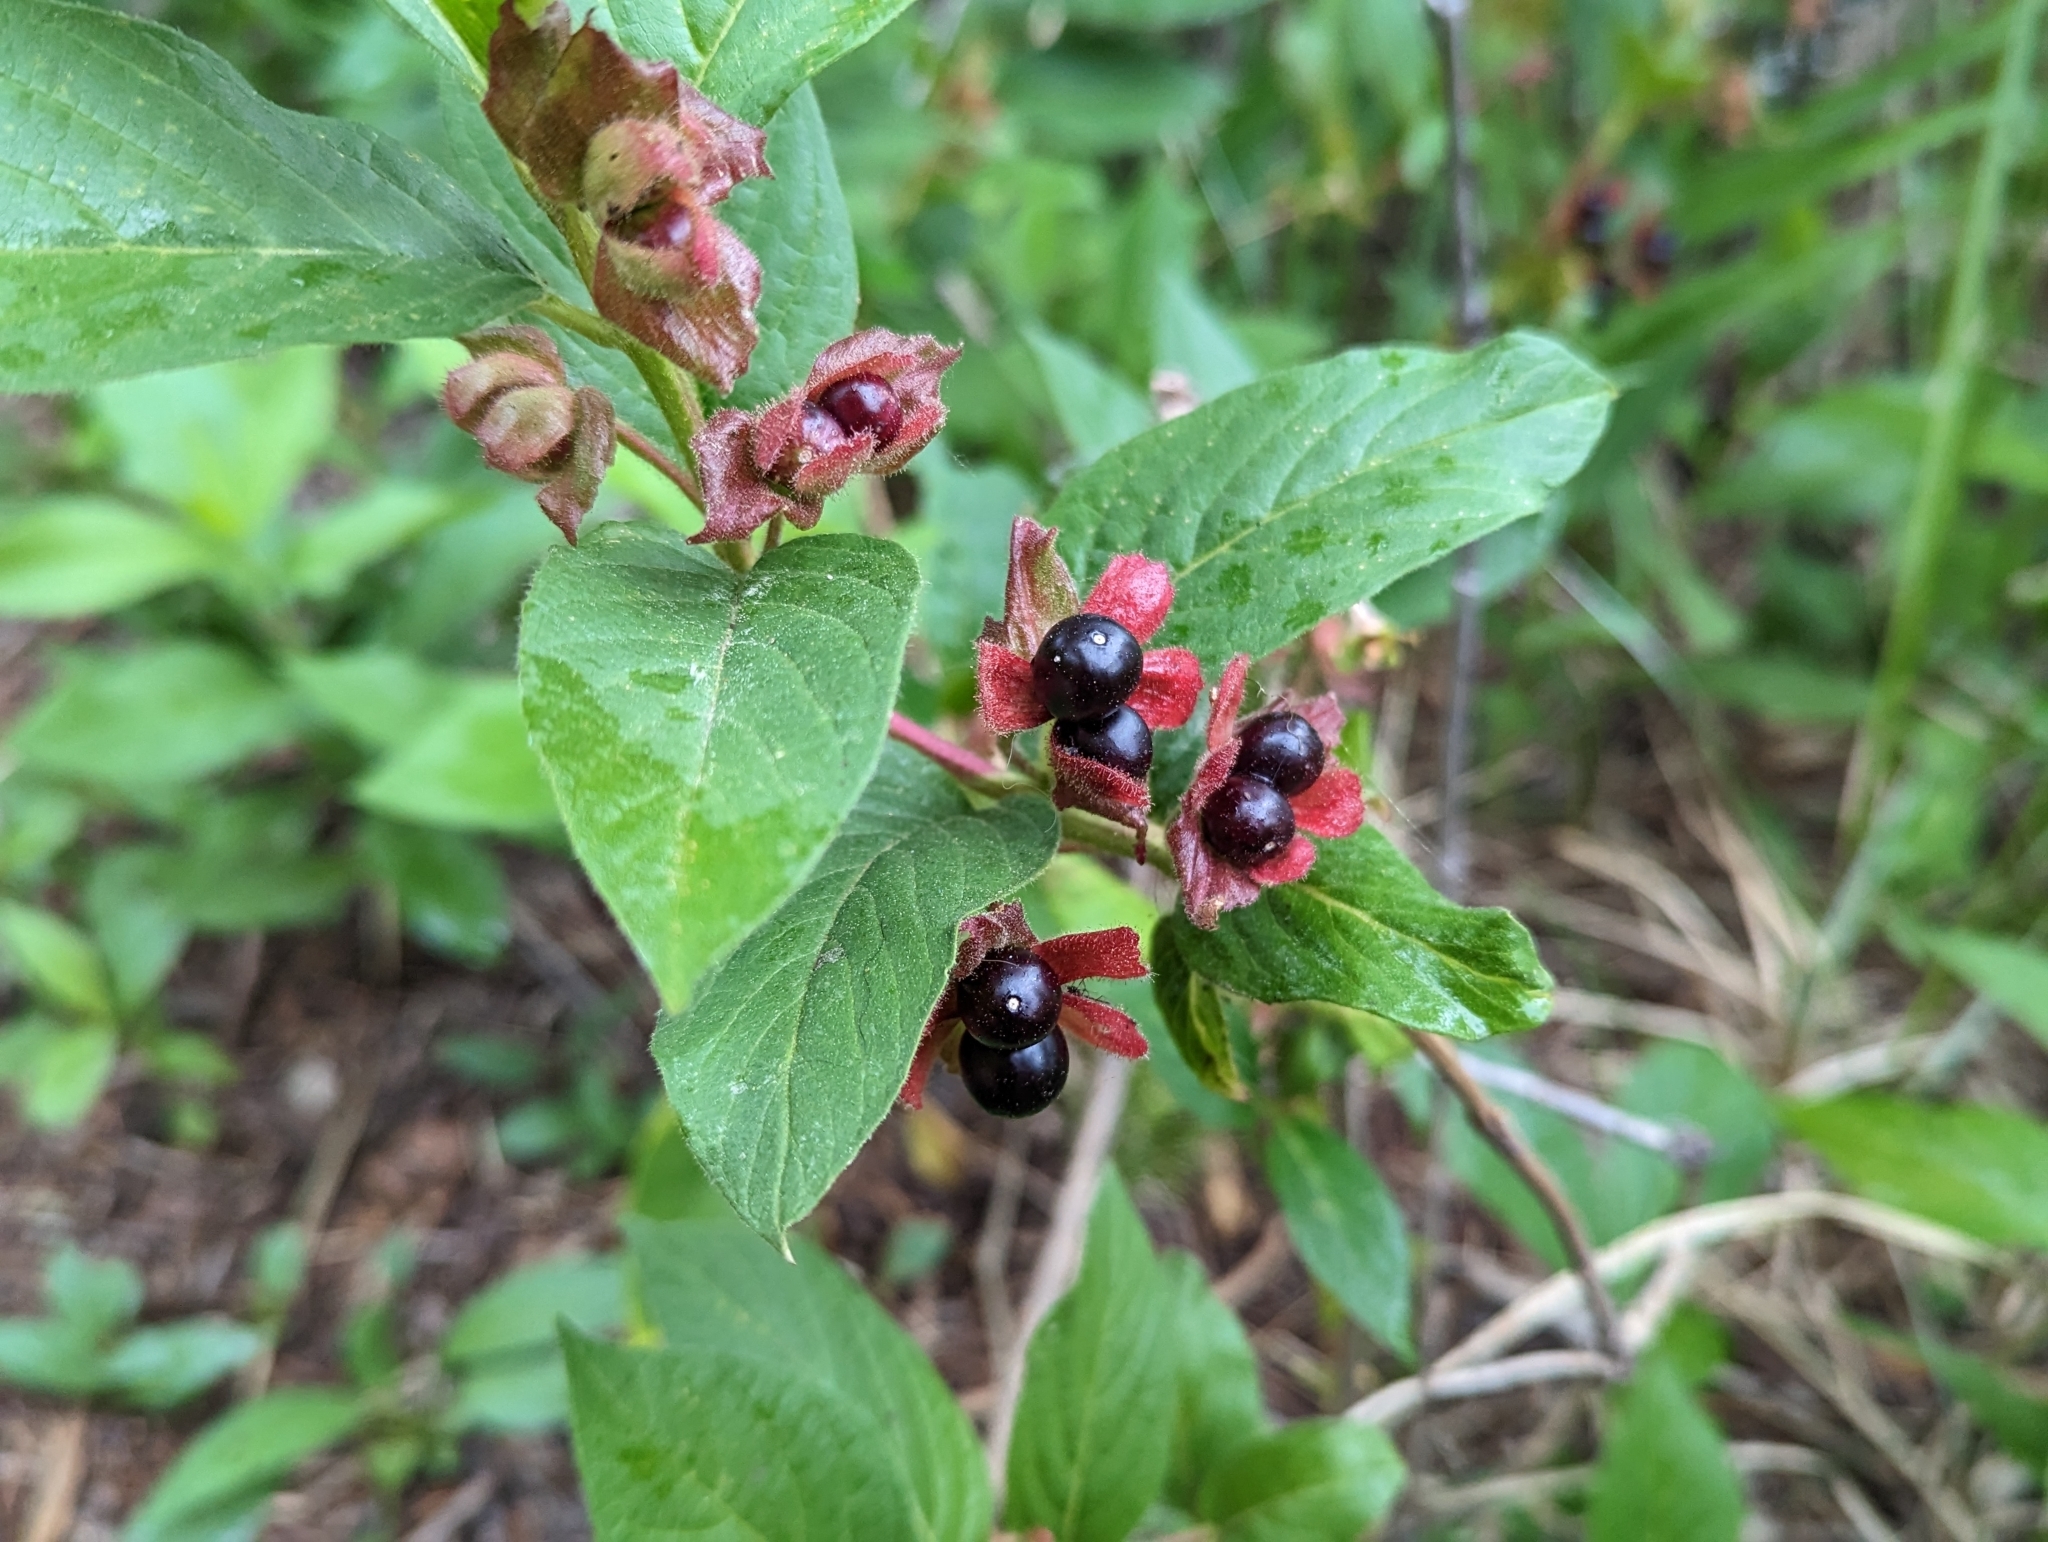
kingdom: Plantae
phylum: Tracheophyta
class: Magnoliopsida
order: Dipsacales
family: Caprifoliaceae
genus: Lonicera
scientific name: Lonicera involucrata
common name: Californian honeysuckle
